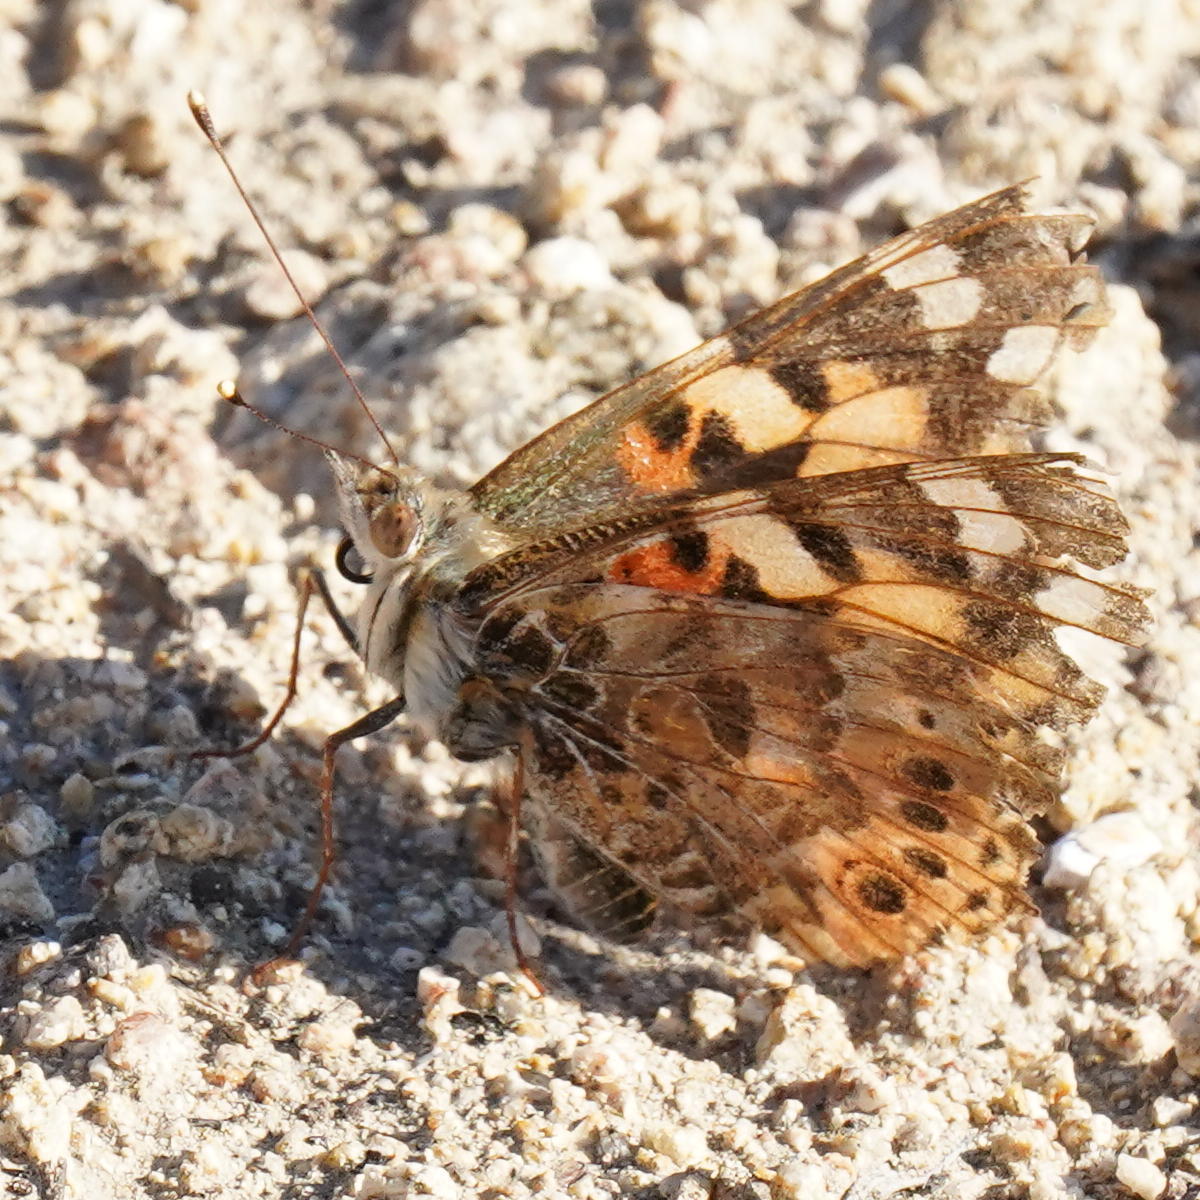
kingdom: Animalia
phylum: Arthropoda
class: Insecta
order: Lepidoptera
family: Nymphalidae
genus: Vanessa
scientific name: Vanessa cardui
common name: Painted lady
